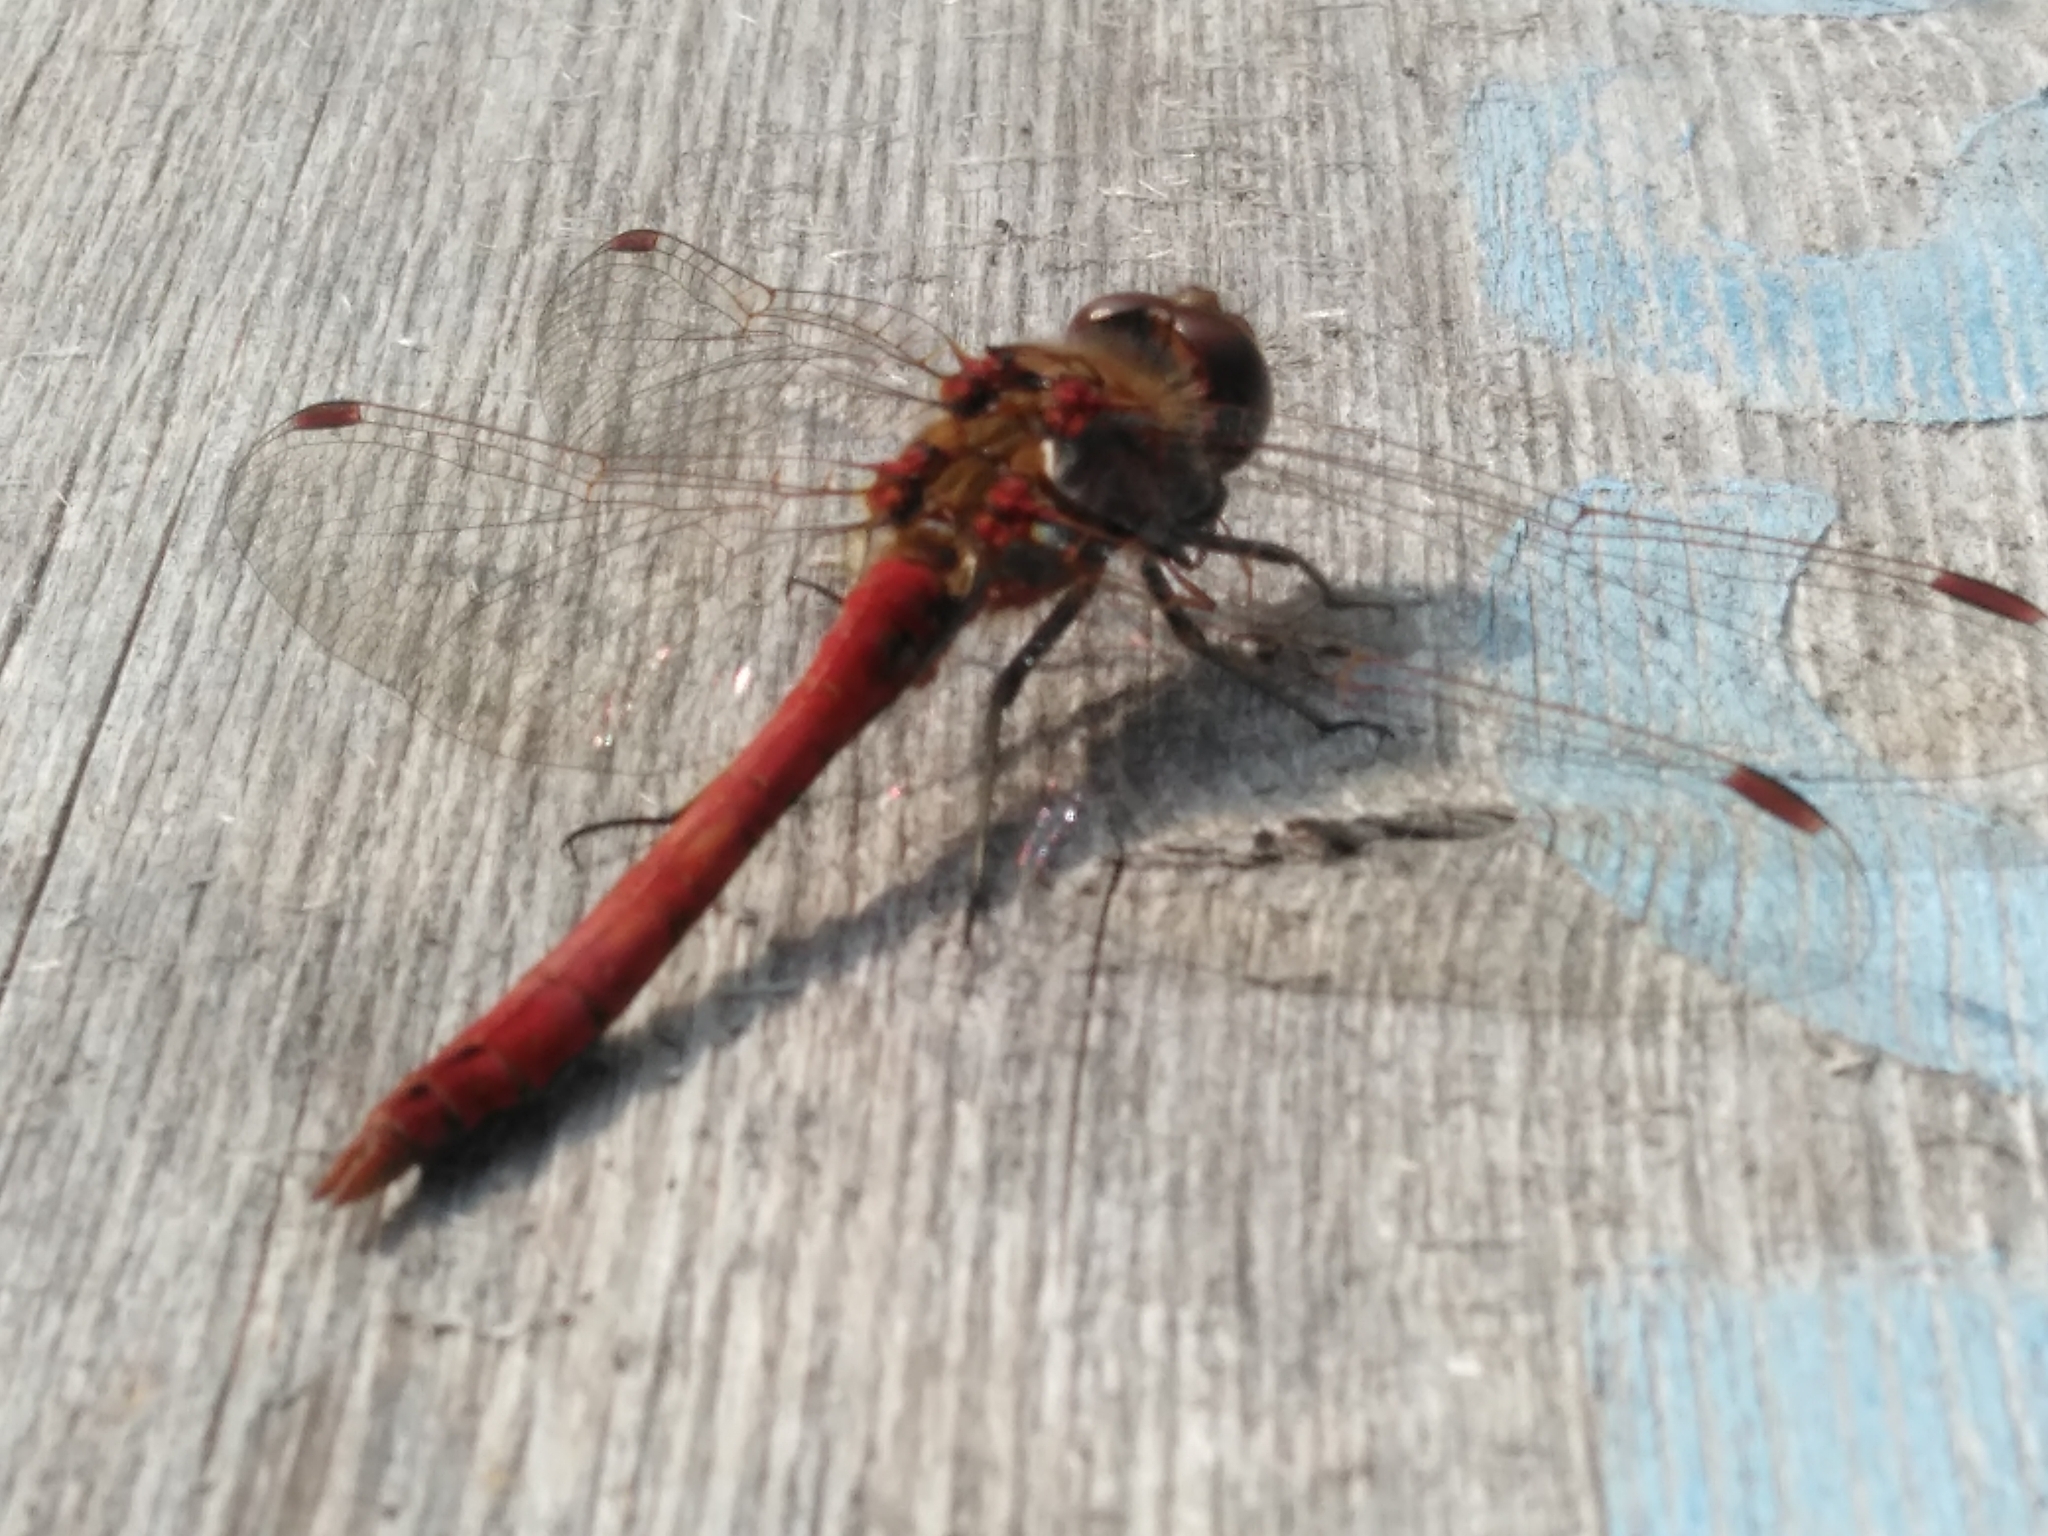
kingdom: Animalia
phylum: Arthropoda
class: Insecta
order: Odonata
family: Libellulidae
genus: Sympetrum
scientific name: Sympetrum vulgatum
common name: Vagrant darter
